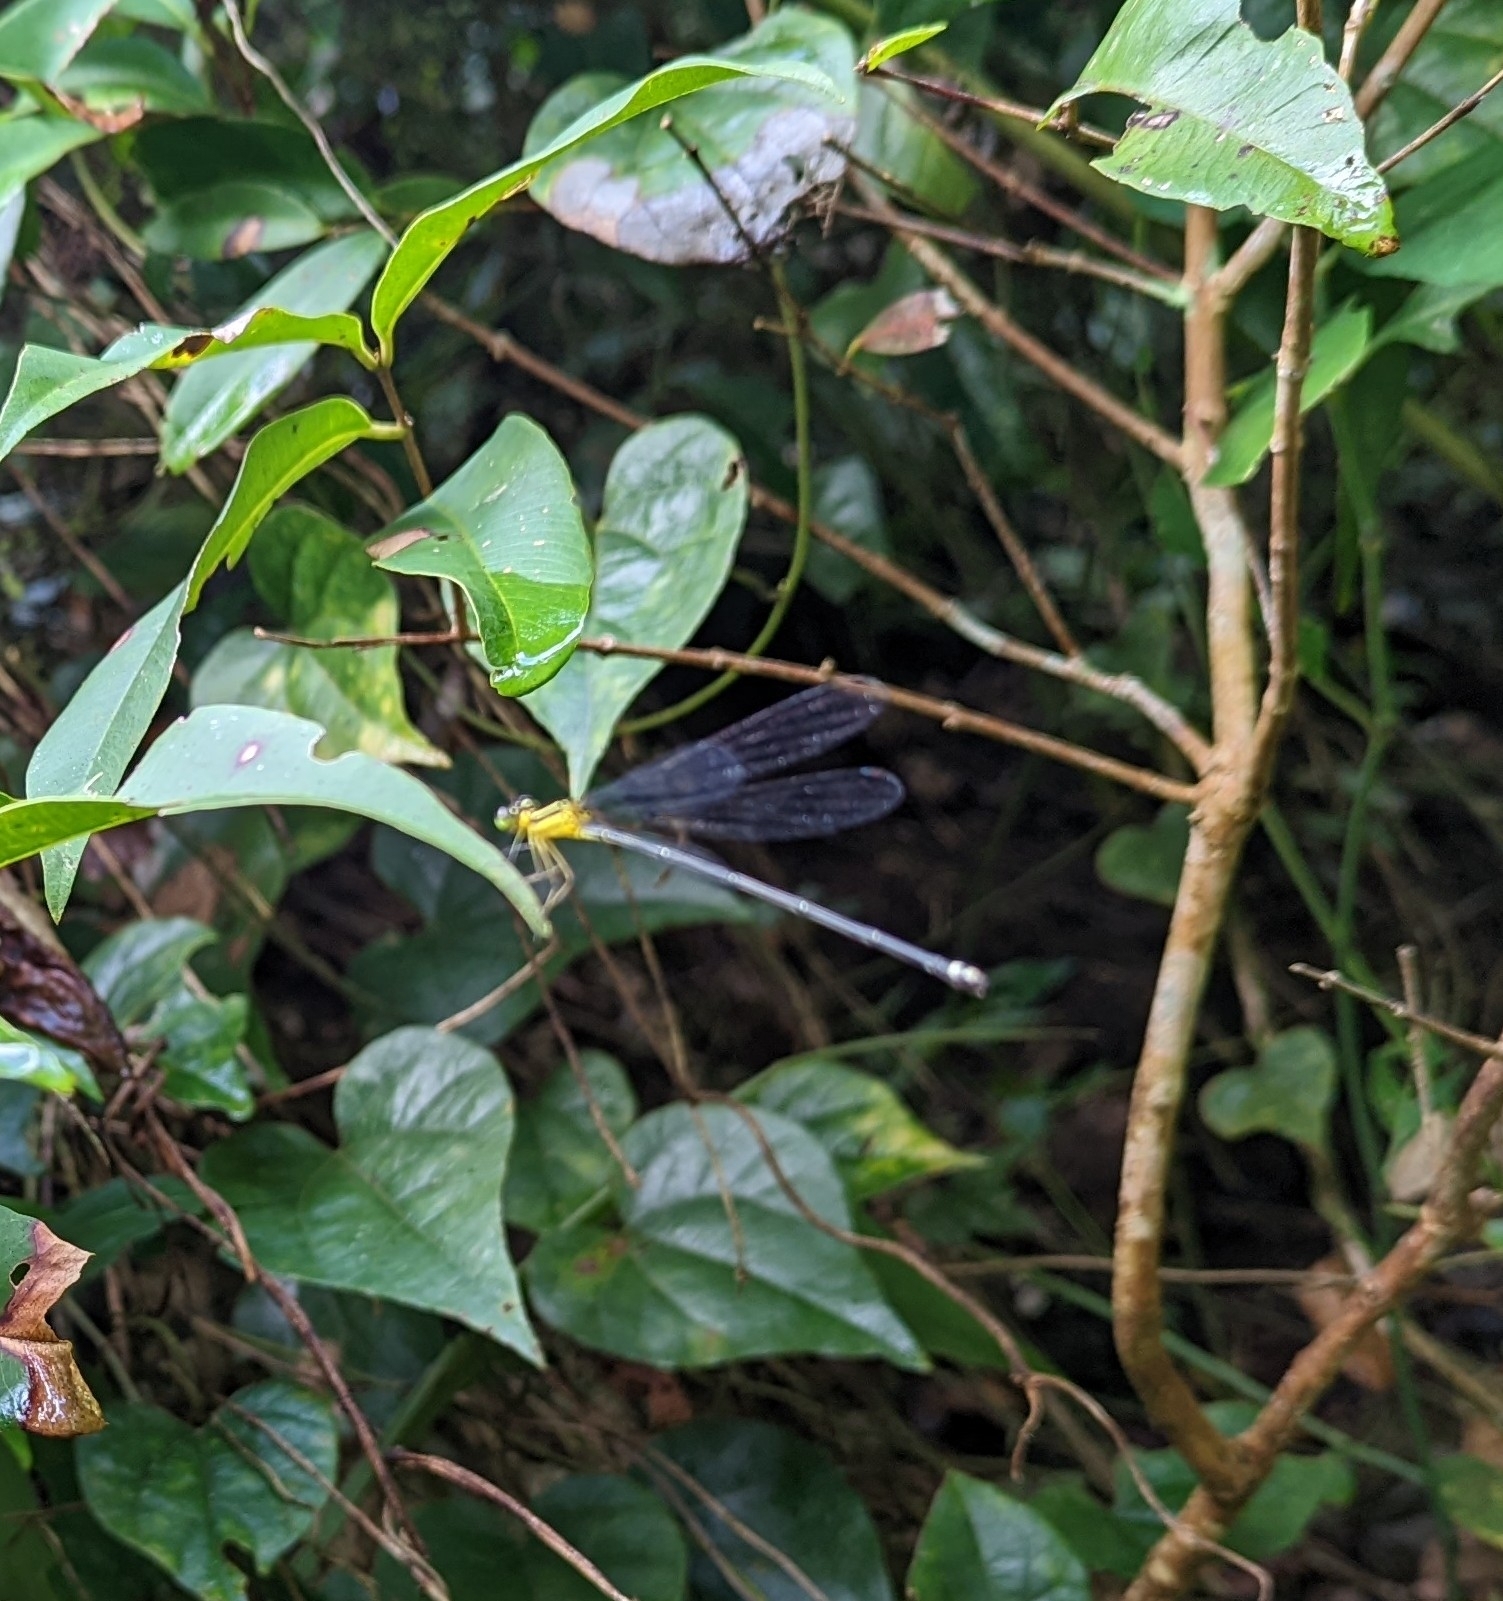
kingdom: Animalia
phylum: Arthropoda
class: Insecta
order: Odonata
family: Platycnemididae
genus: Coeliccia
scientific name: Coeliccia chromothorax
